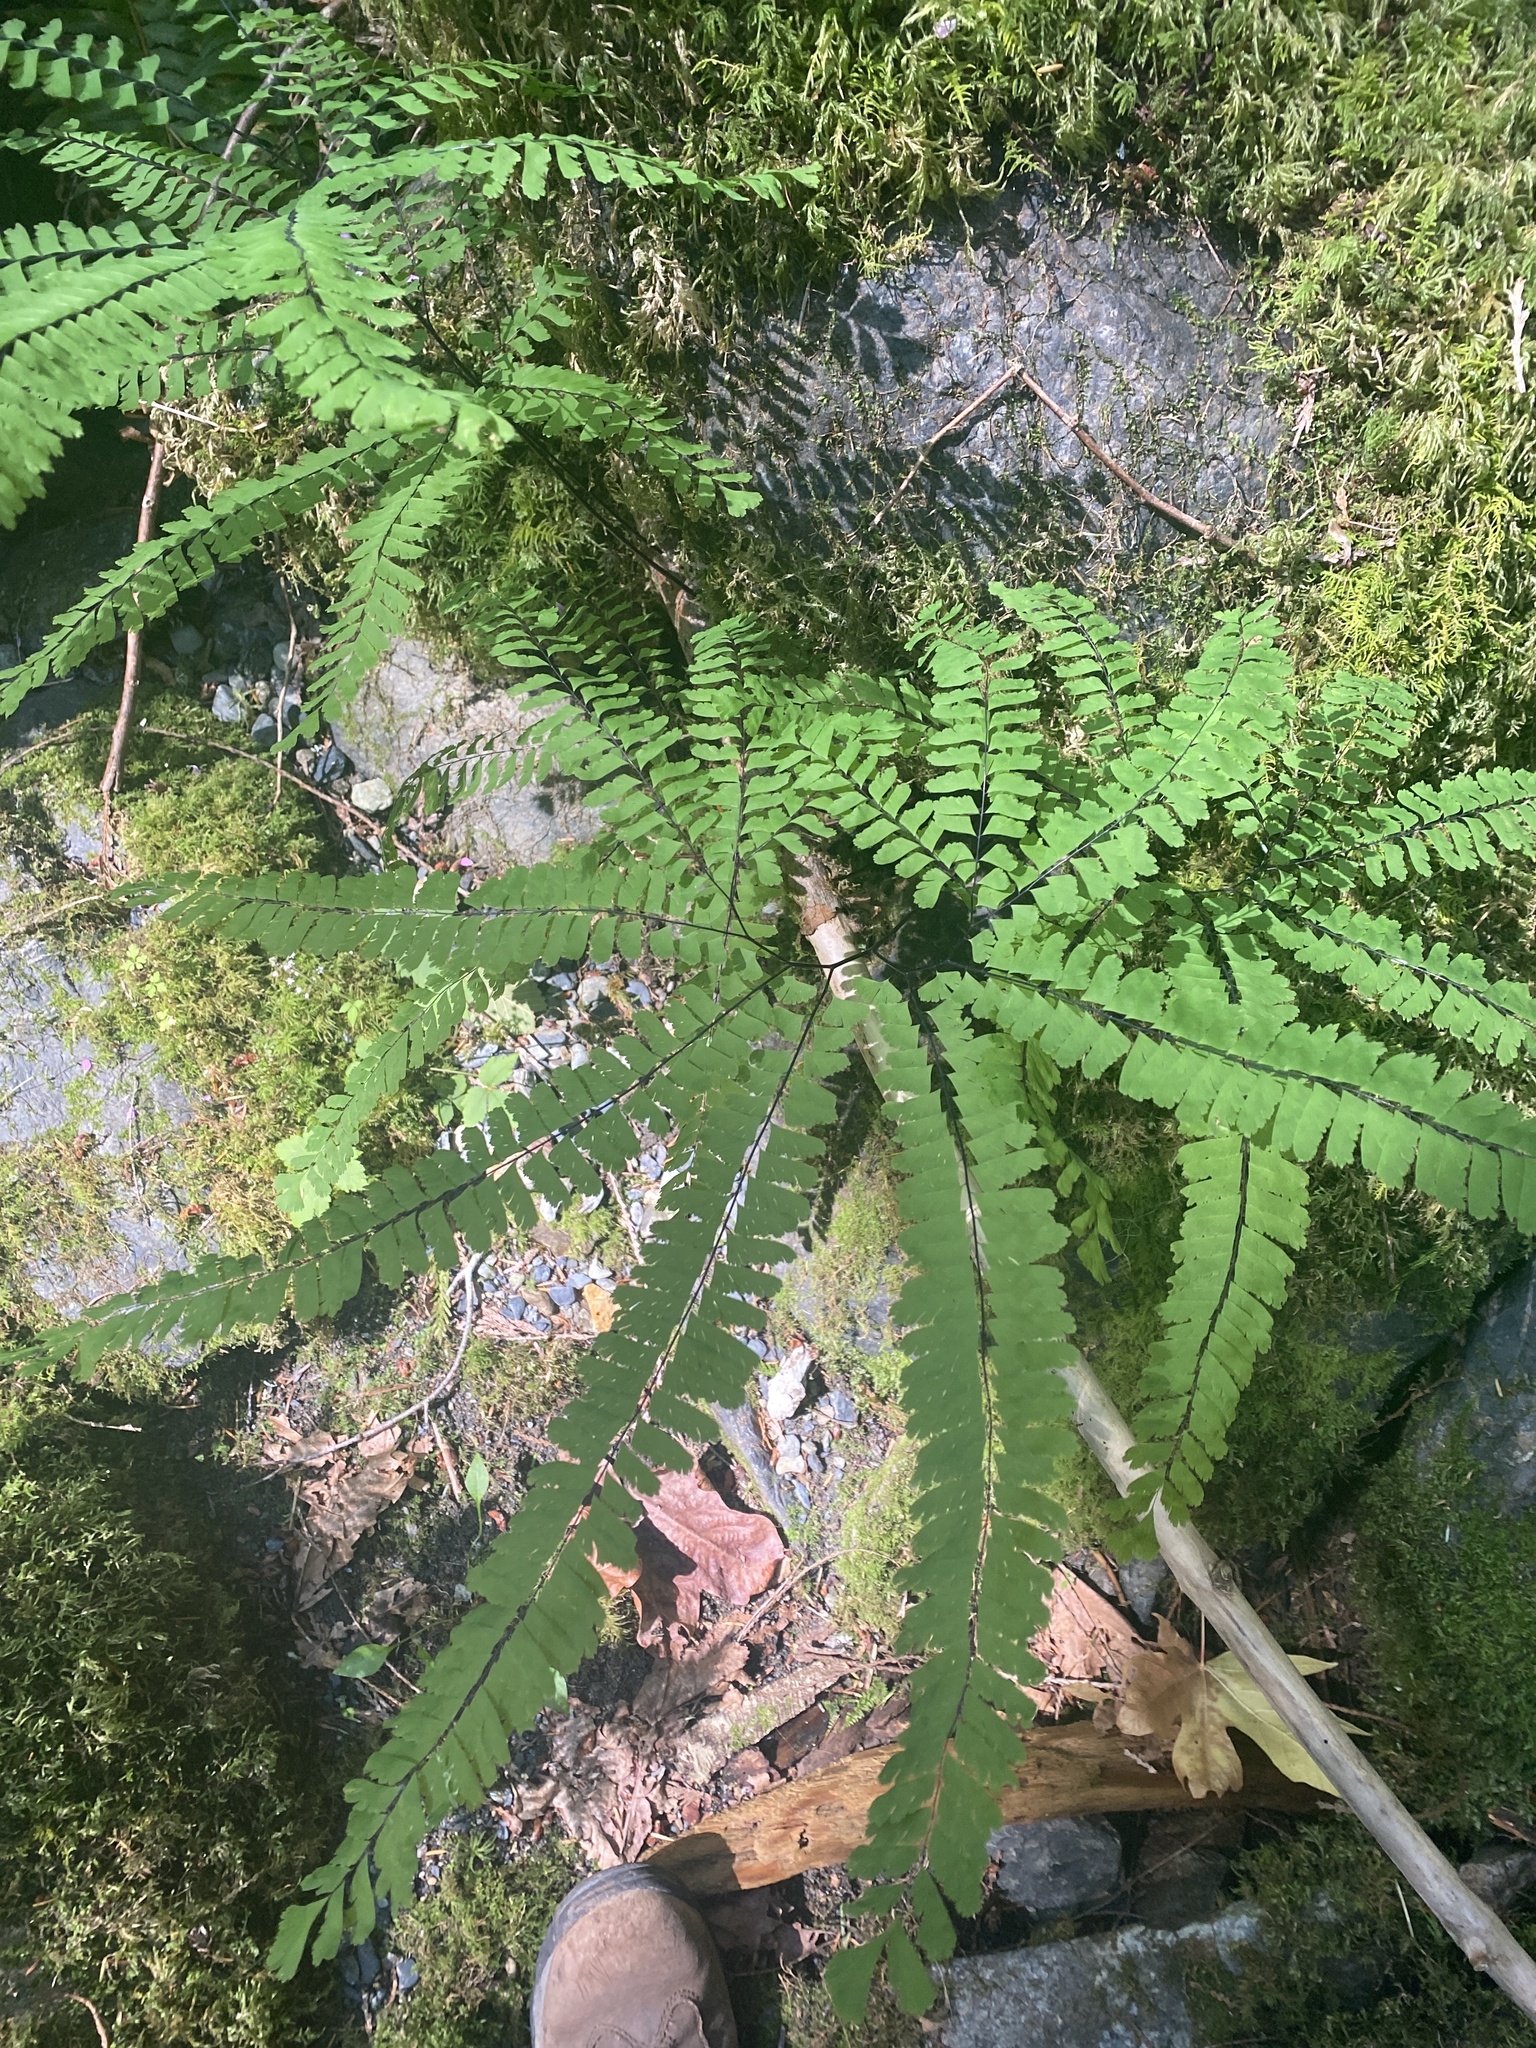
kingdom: Plantae
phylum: Tracheophyta
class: Polypodiopsida
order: Polypodiales
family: Pteridaceae
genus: Adiantum
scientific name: Adiantum aleuticum
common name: Aleutian maidenhair fern
